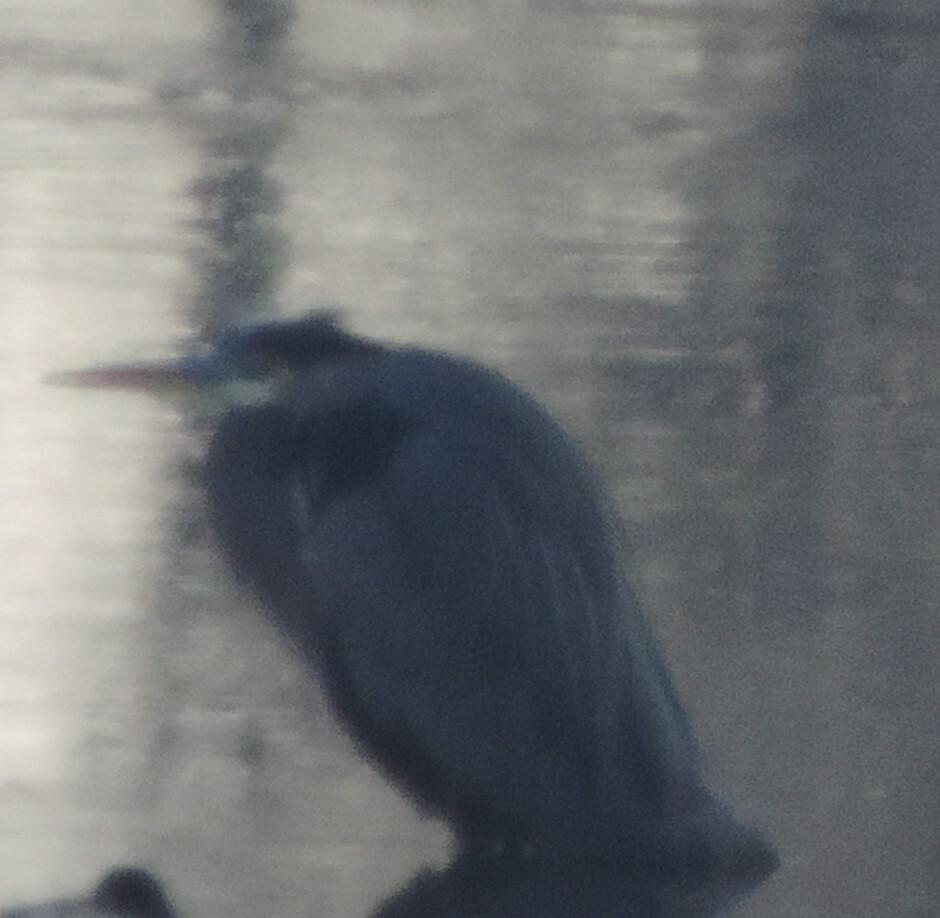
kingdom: Animalia
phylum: Chordata
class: Aves
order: Pelecaniformes
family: Ardeidae
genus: Ardea
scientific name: Ardea herodias
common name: Great blue heron
